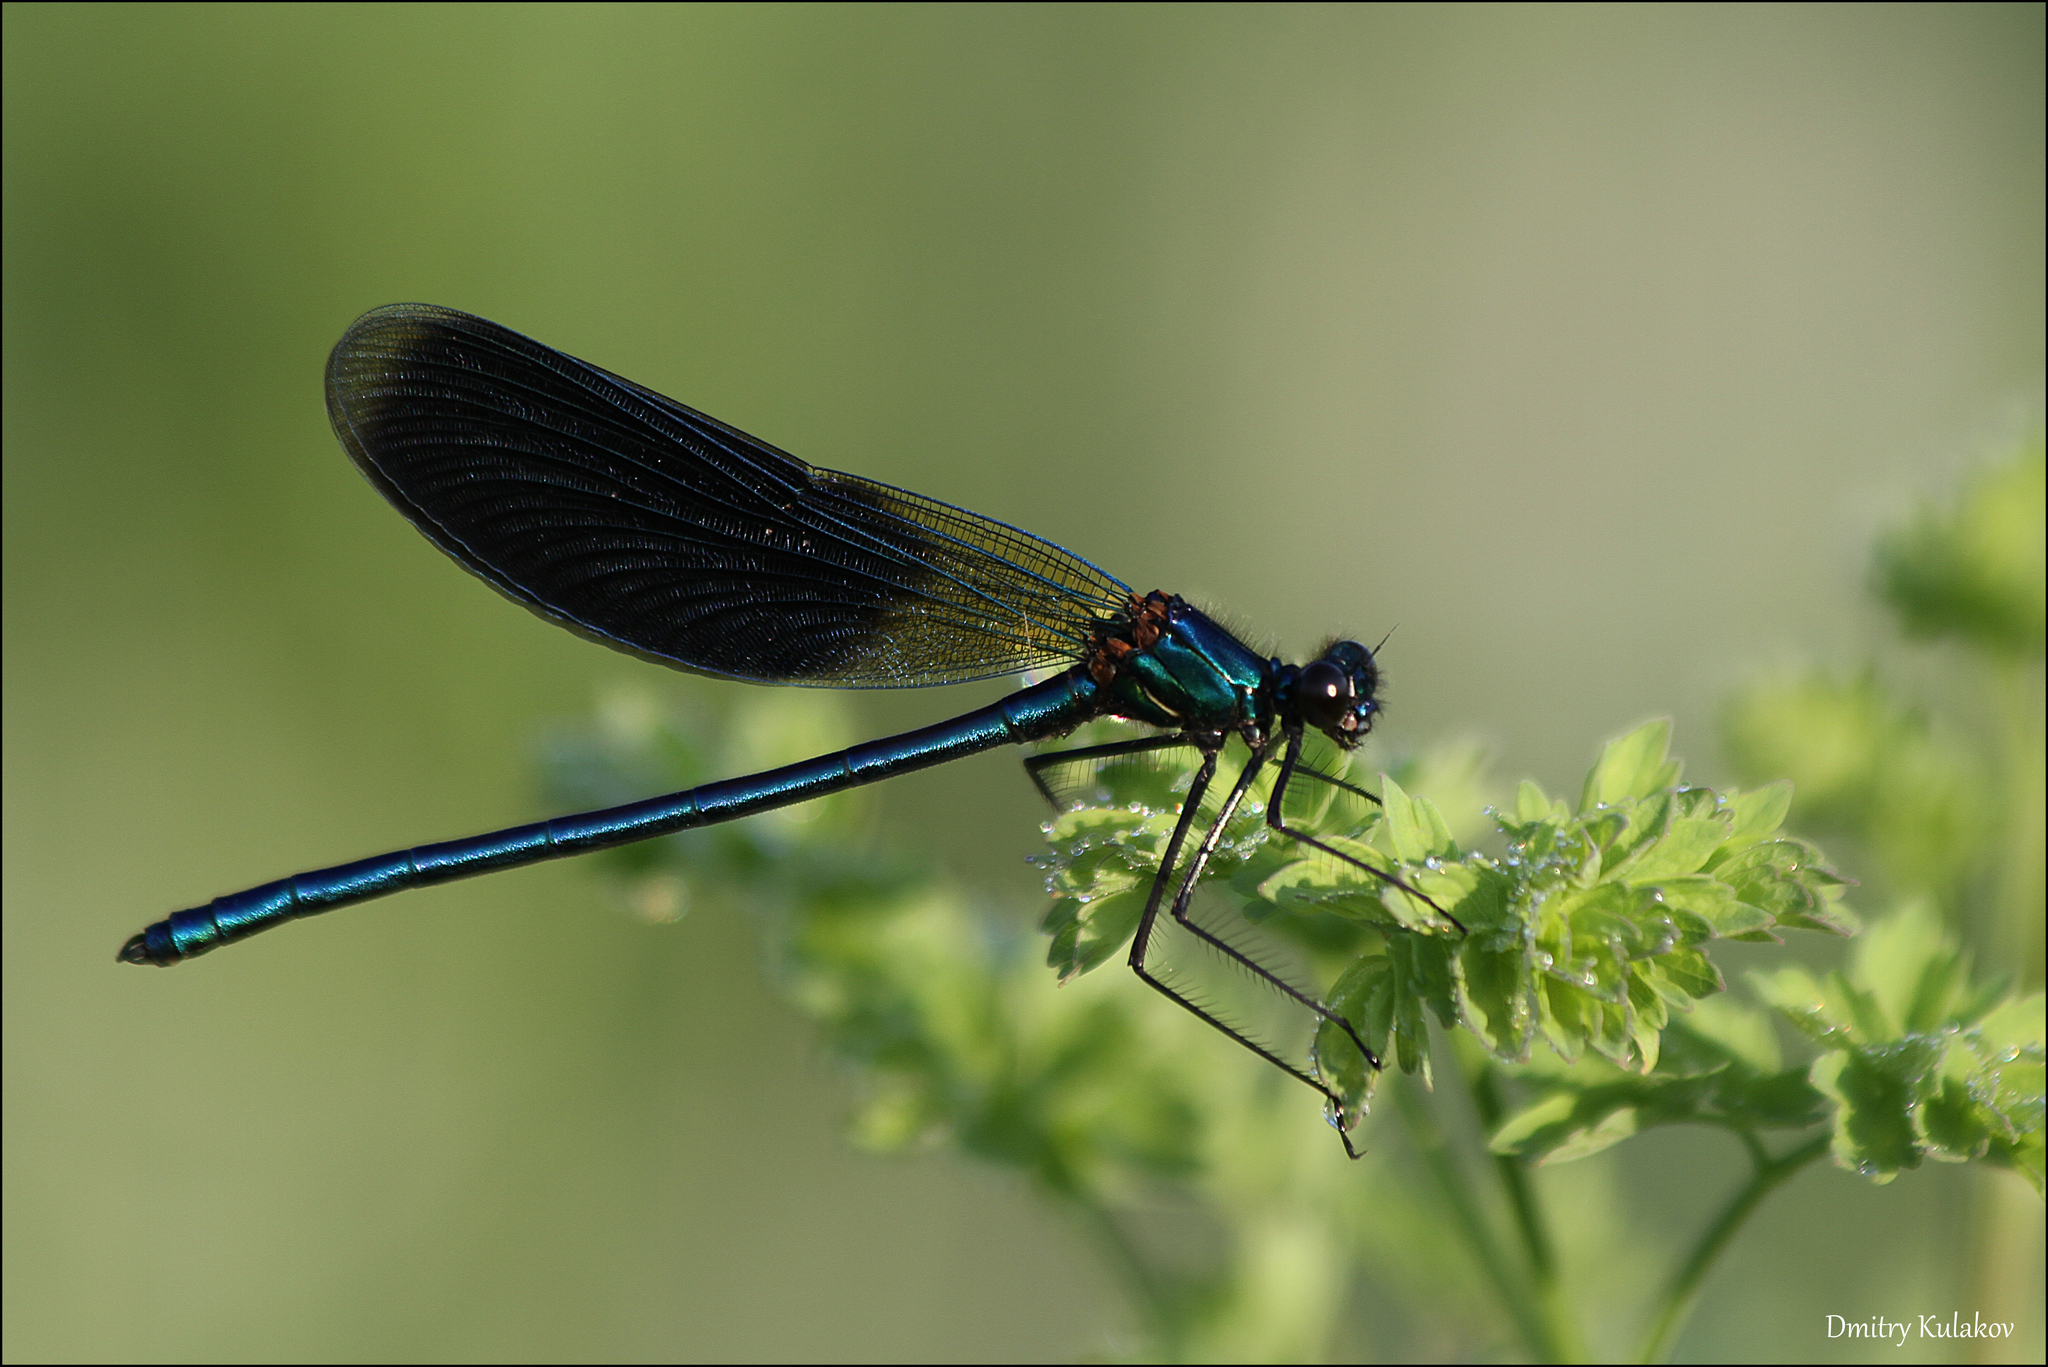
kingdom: Animalia
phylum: Arthropoda
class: Insecta
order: Odonata
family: Calopterygidae
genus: Calopteryx
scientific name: Calopteryx splendens
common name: Banded demoiselle
